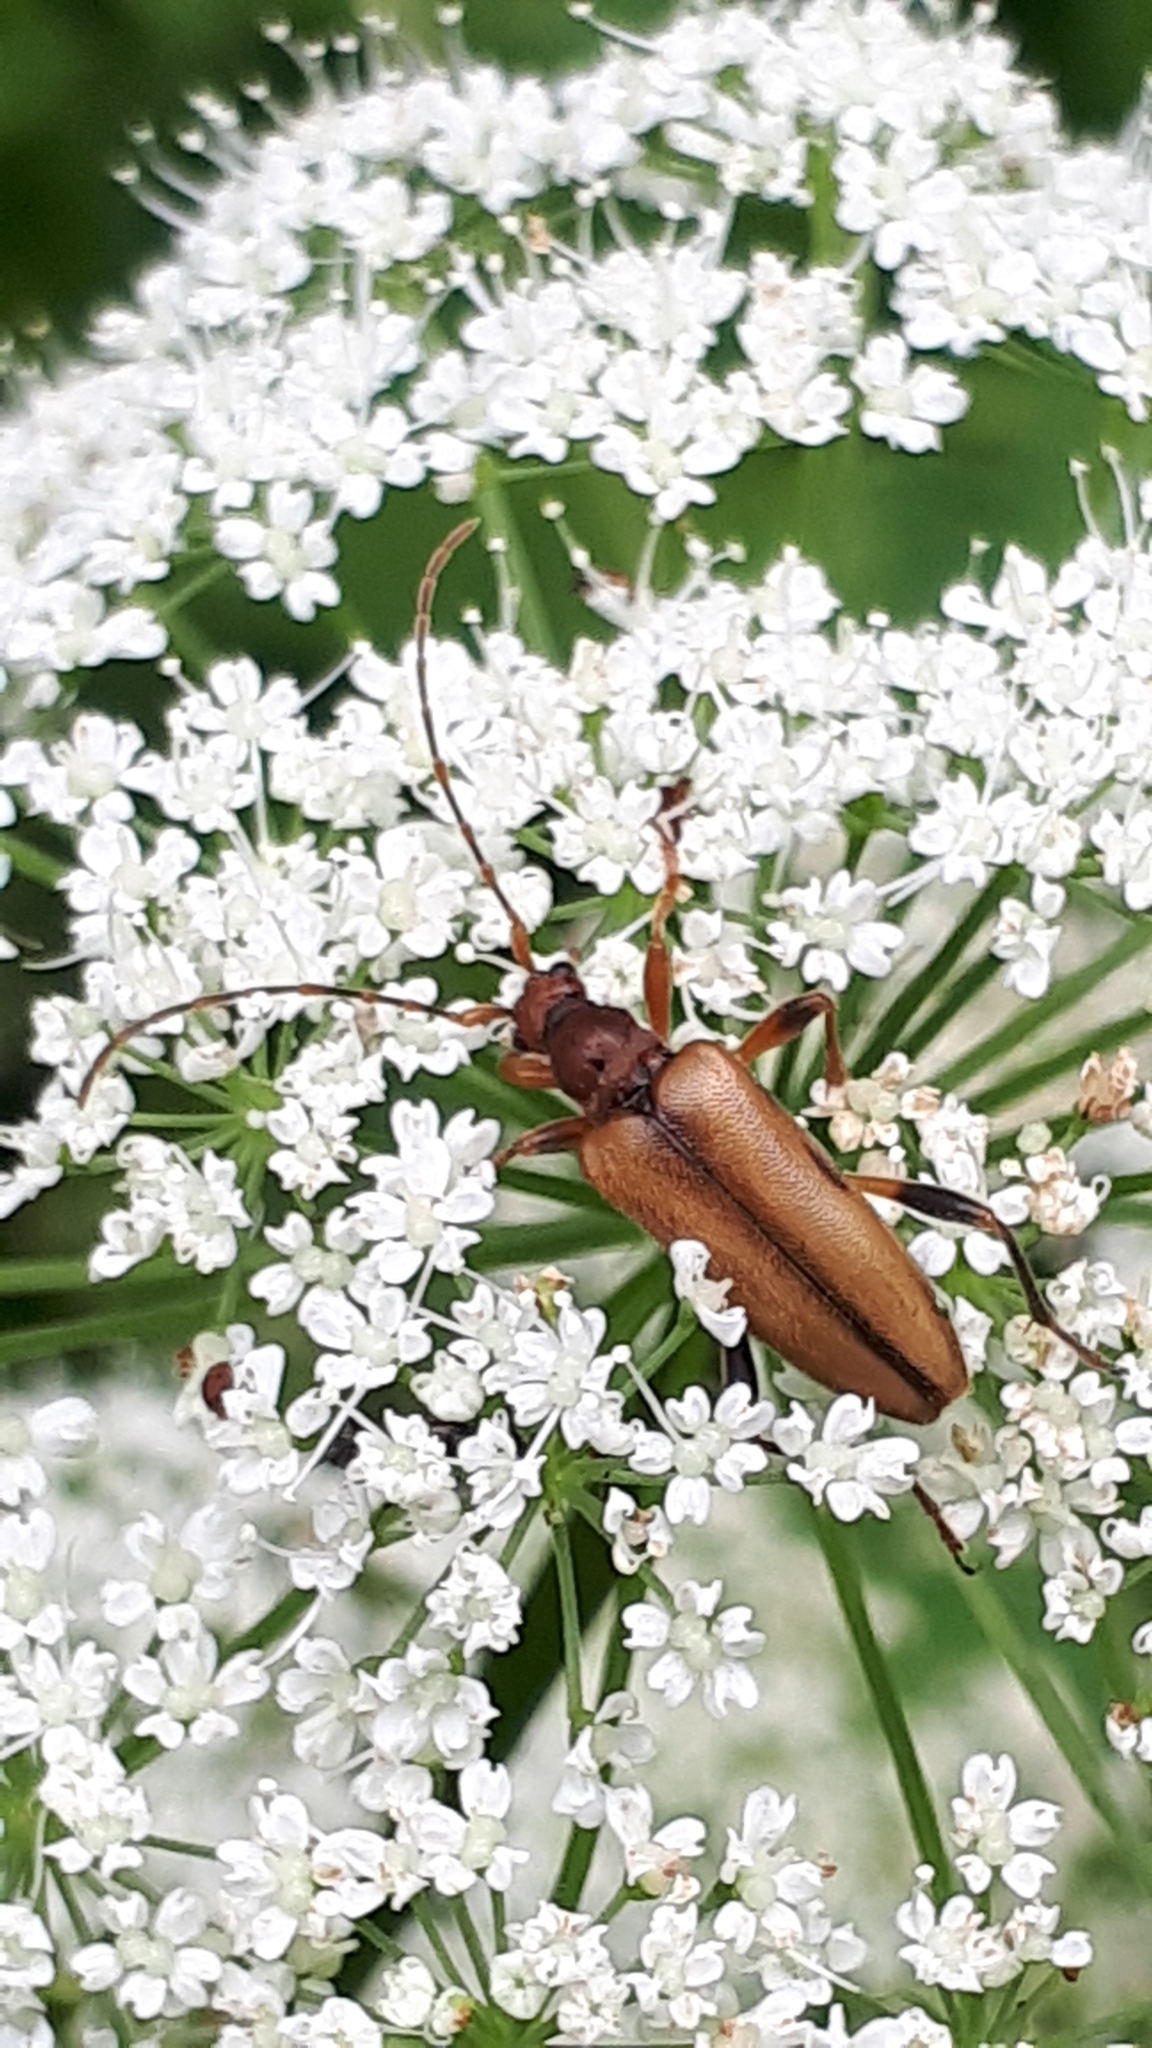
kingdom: Animalia
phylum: Arthropoda
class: Insecta
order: Coleoptera
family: Cerambycidae
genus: Pidonia
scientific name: Pidonia lurida
